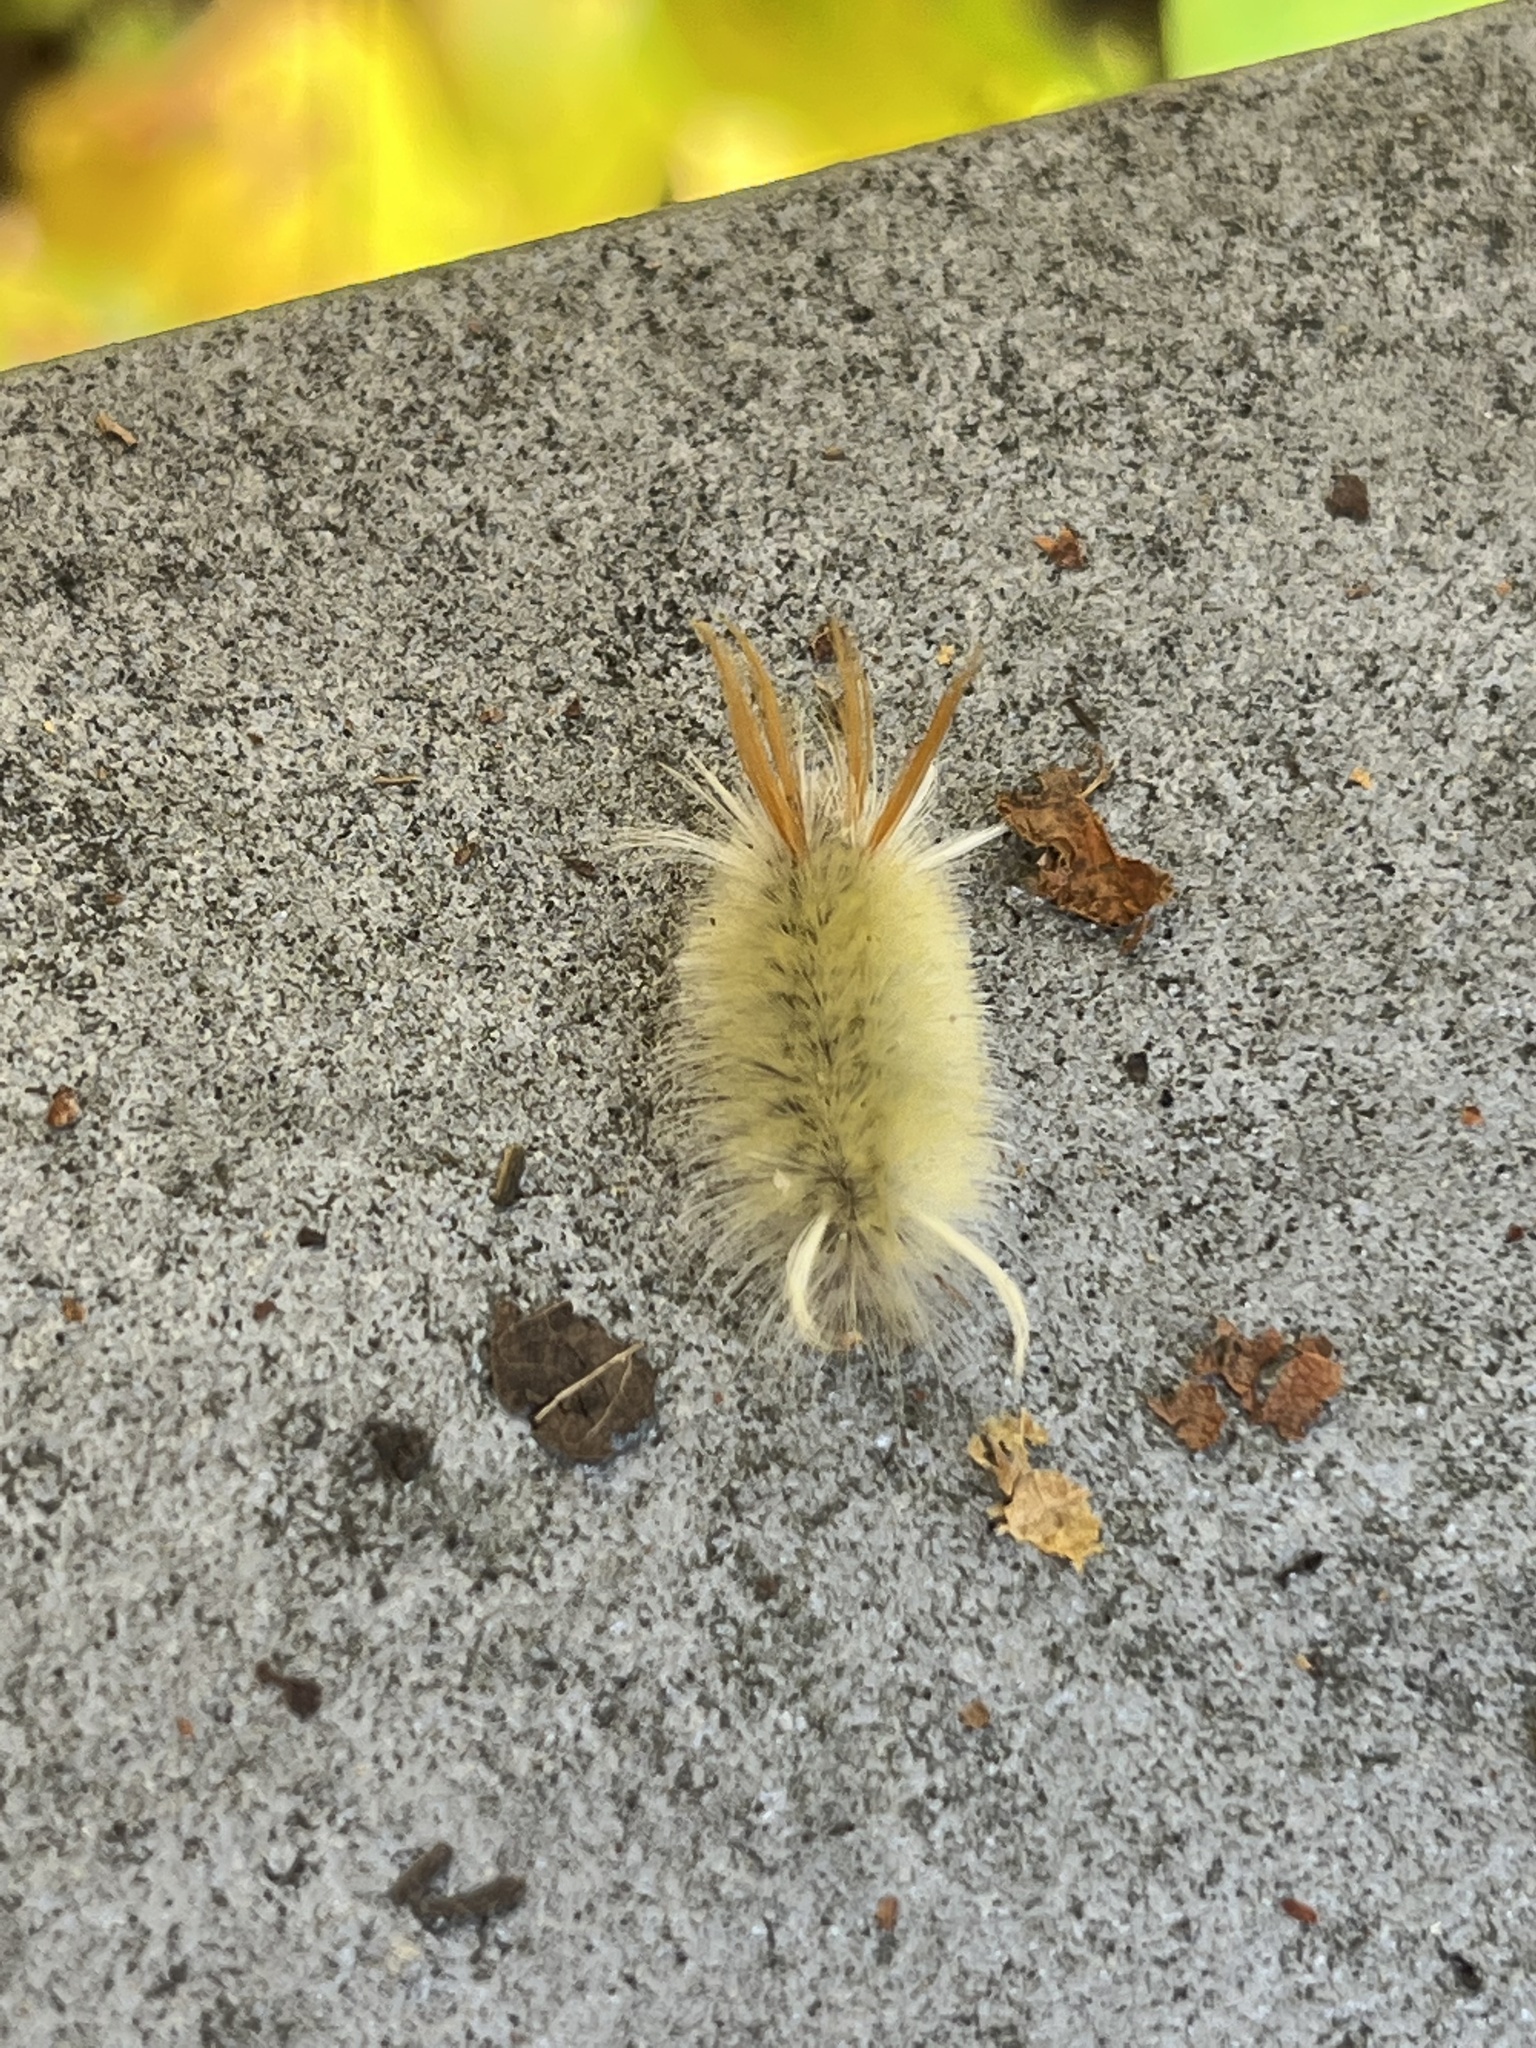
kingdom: Animalia
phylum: Arthropoda
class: Insecta
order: Lepidoptera
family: Erebidae
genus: Halysidota
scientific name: Halysidota harrisii
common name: Sycamore tussock moth
